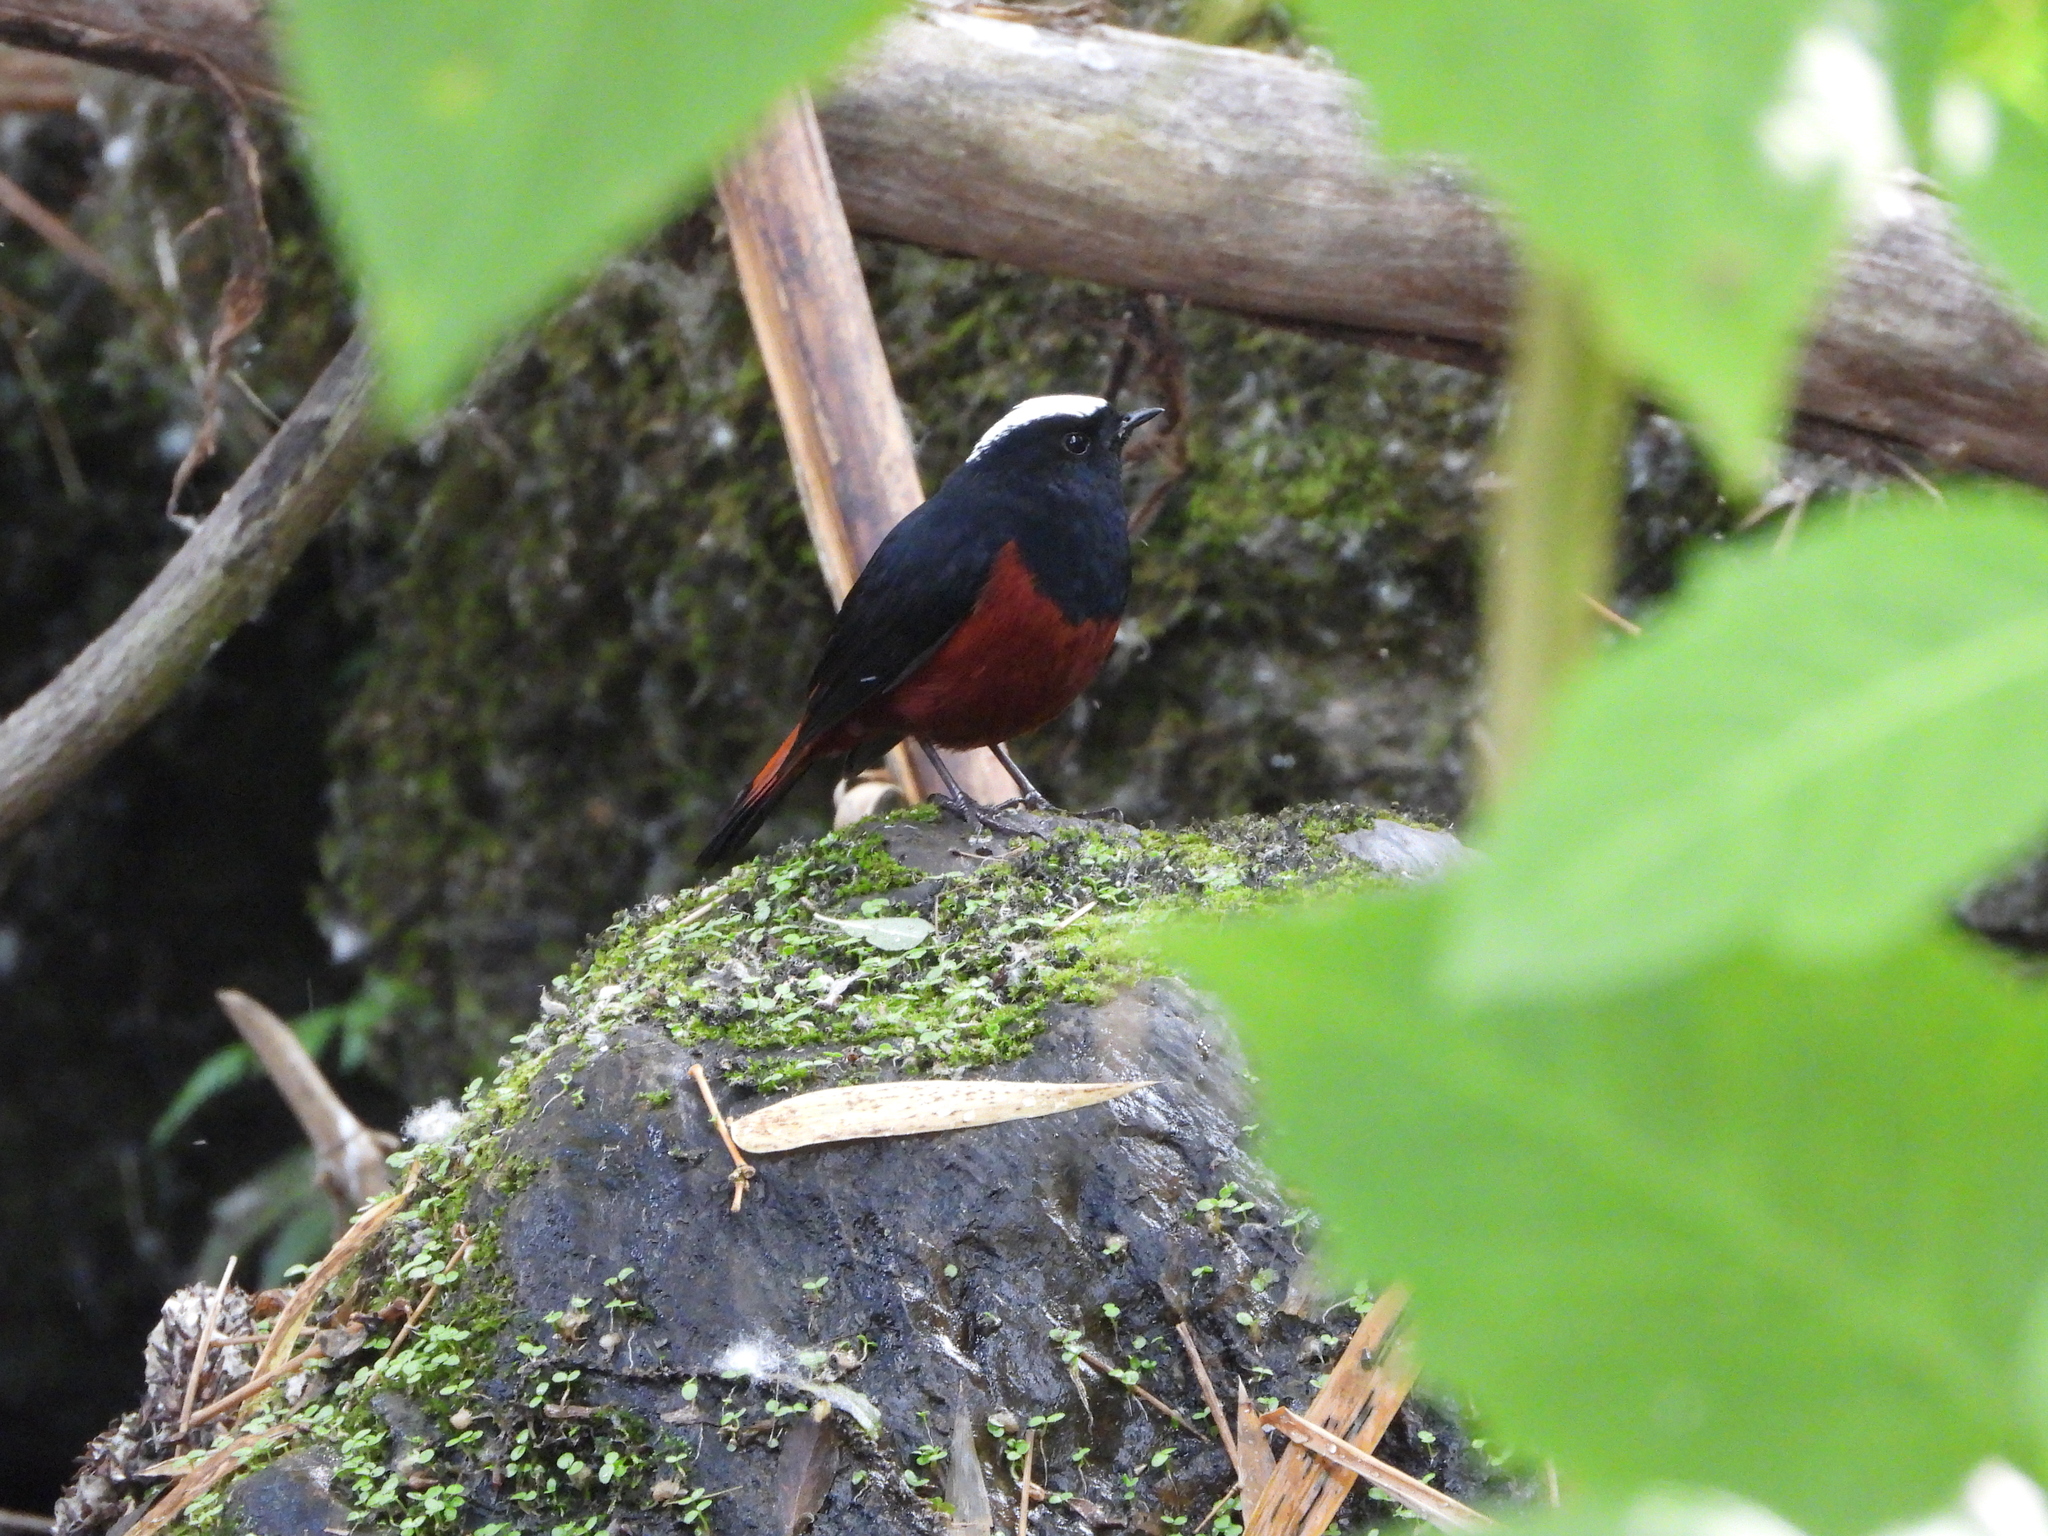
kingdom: Animalia
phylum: Chordata
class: Aves
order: Passeriformes
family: Muscicapidae
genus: Chaimarrornis
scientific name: Chaimarrornis leucocephalus
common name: White-capped redstart
